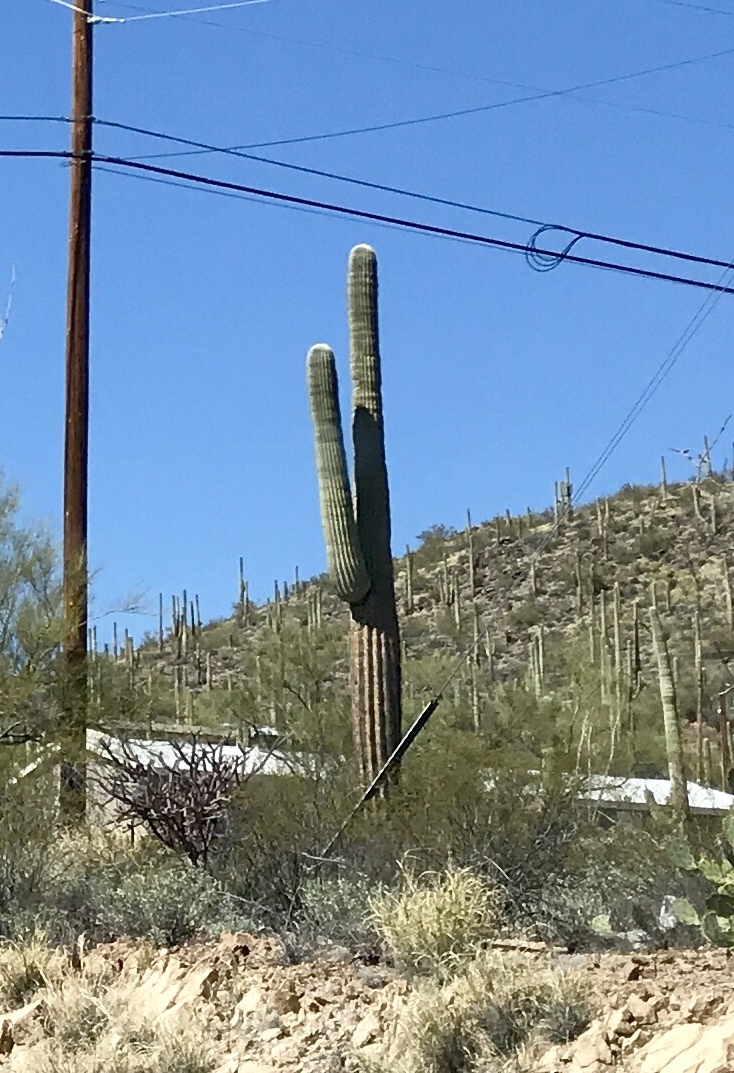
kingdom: Plantae
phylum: Tracheophyta
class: Magnoliopsida
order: Caryophyllales
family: Cactaceae
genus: Carnegiea
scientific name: Carnegiea gigantea
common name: Saguaro
